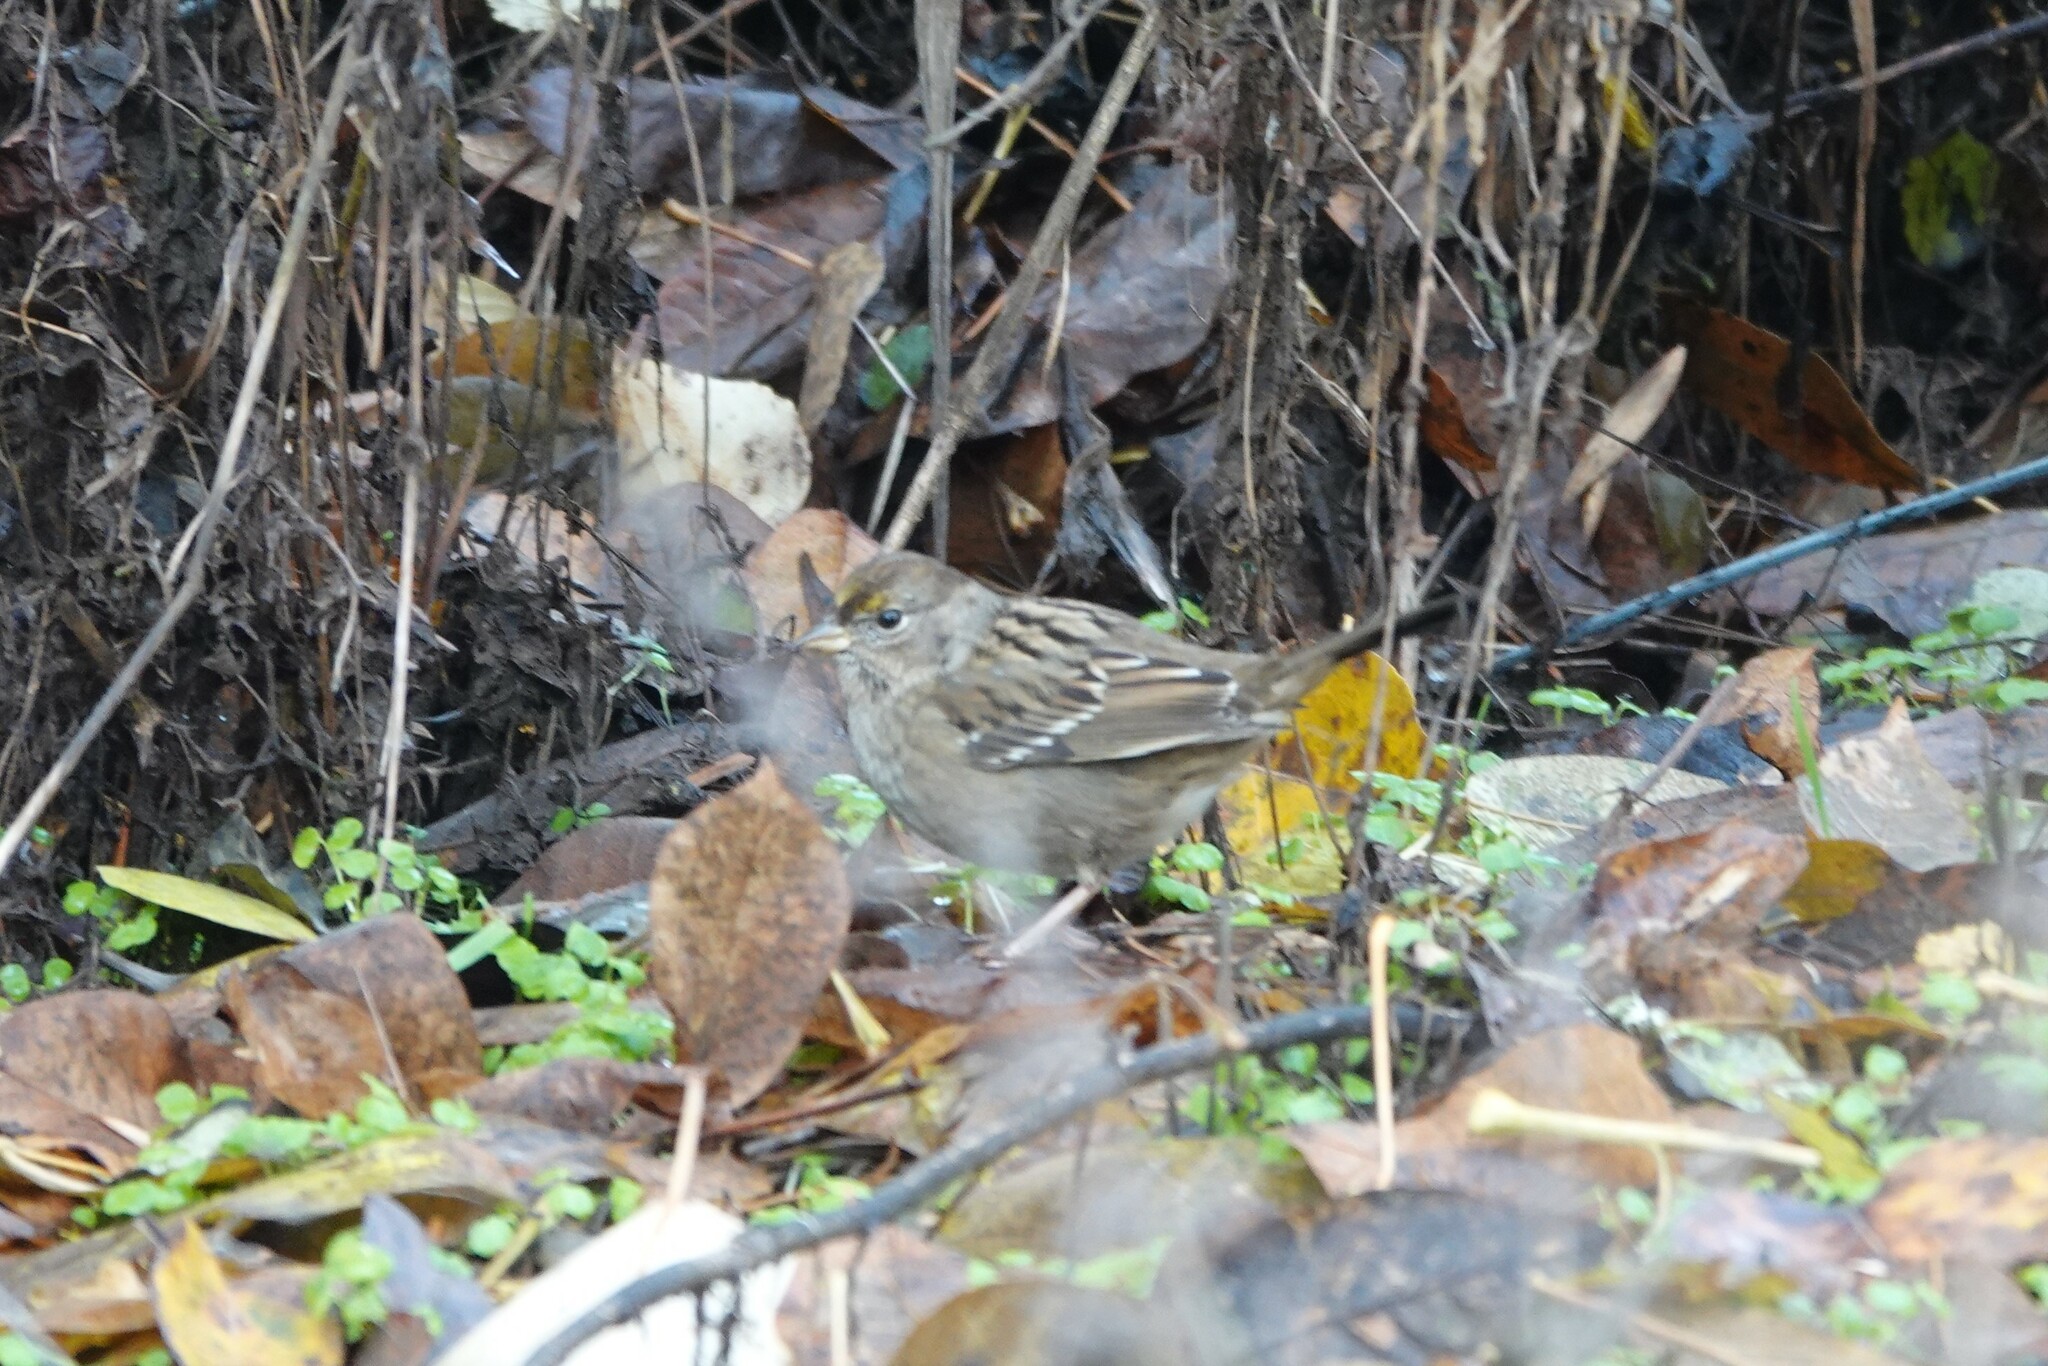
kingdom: Animalia
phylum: Chordata
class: Aves
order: Passeriformes
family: Passerellidae
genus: Zonotrichia
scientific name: Zonotrichia atricapilla
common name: Golden-crowned sparrow
